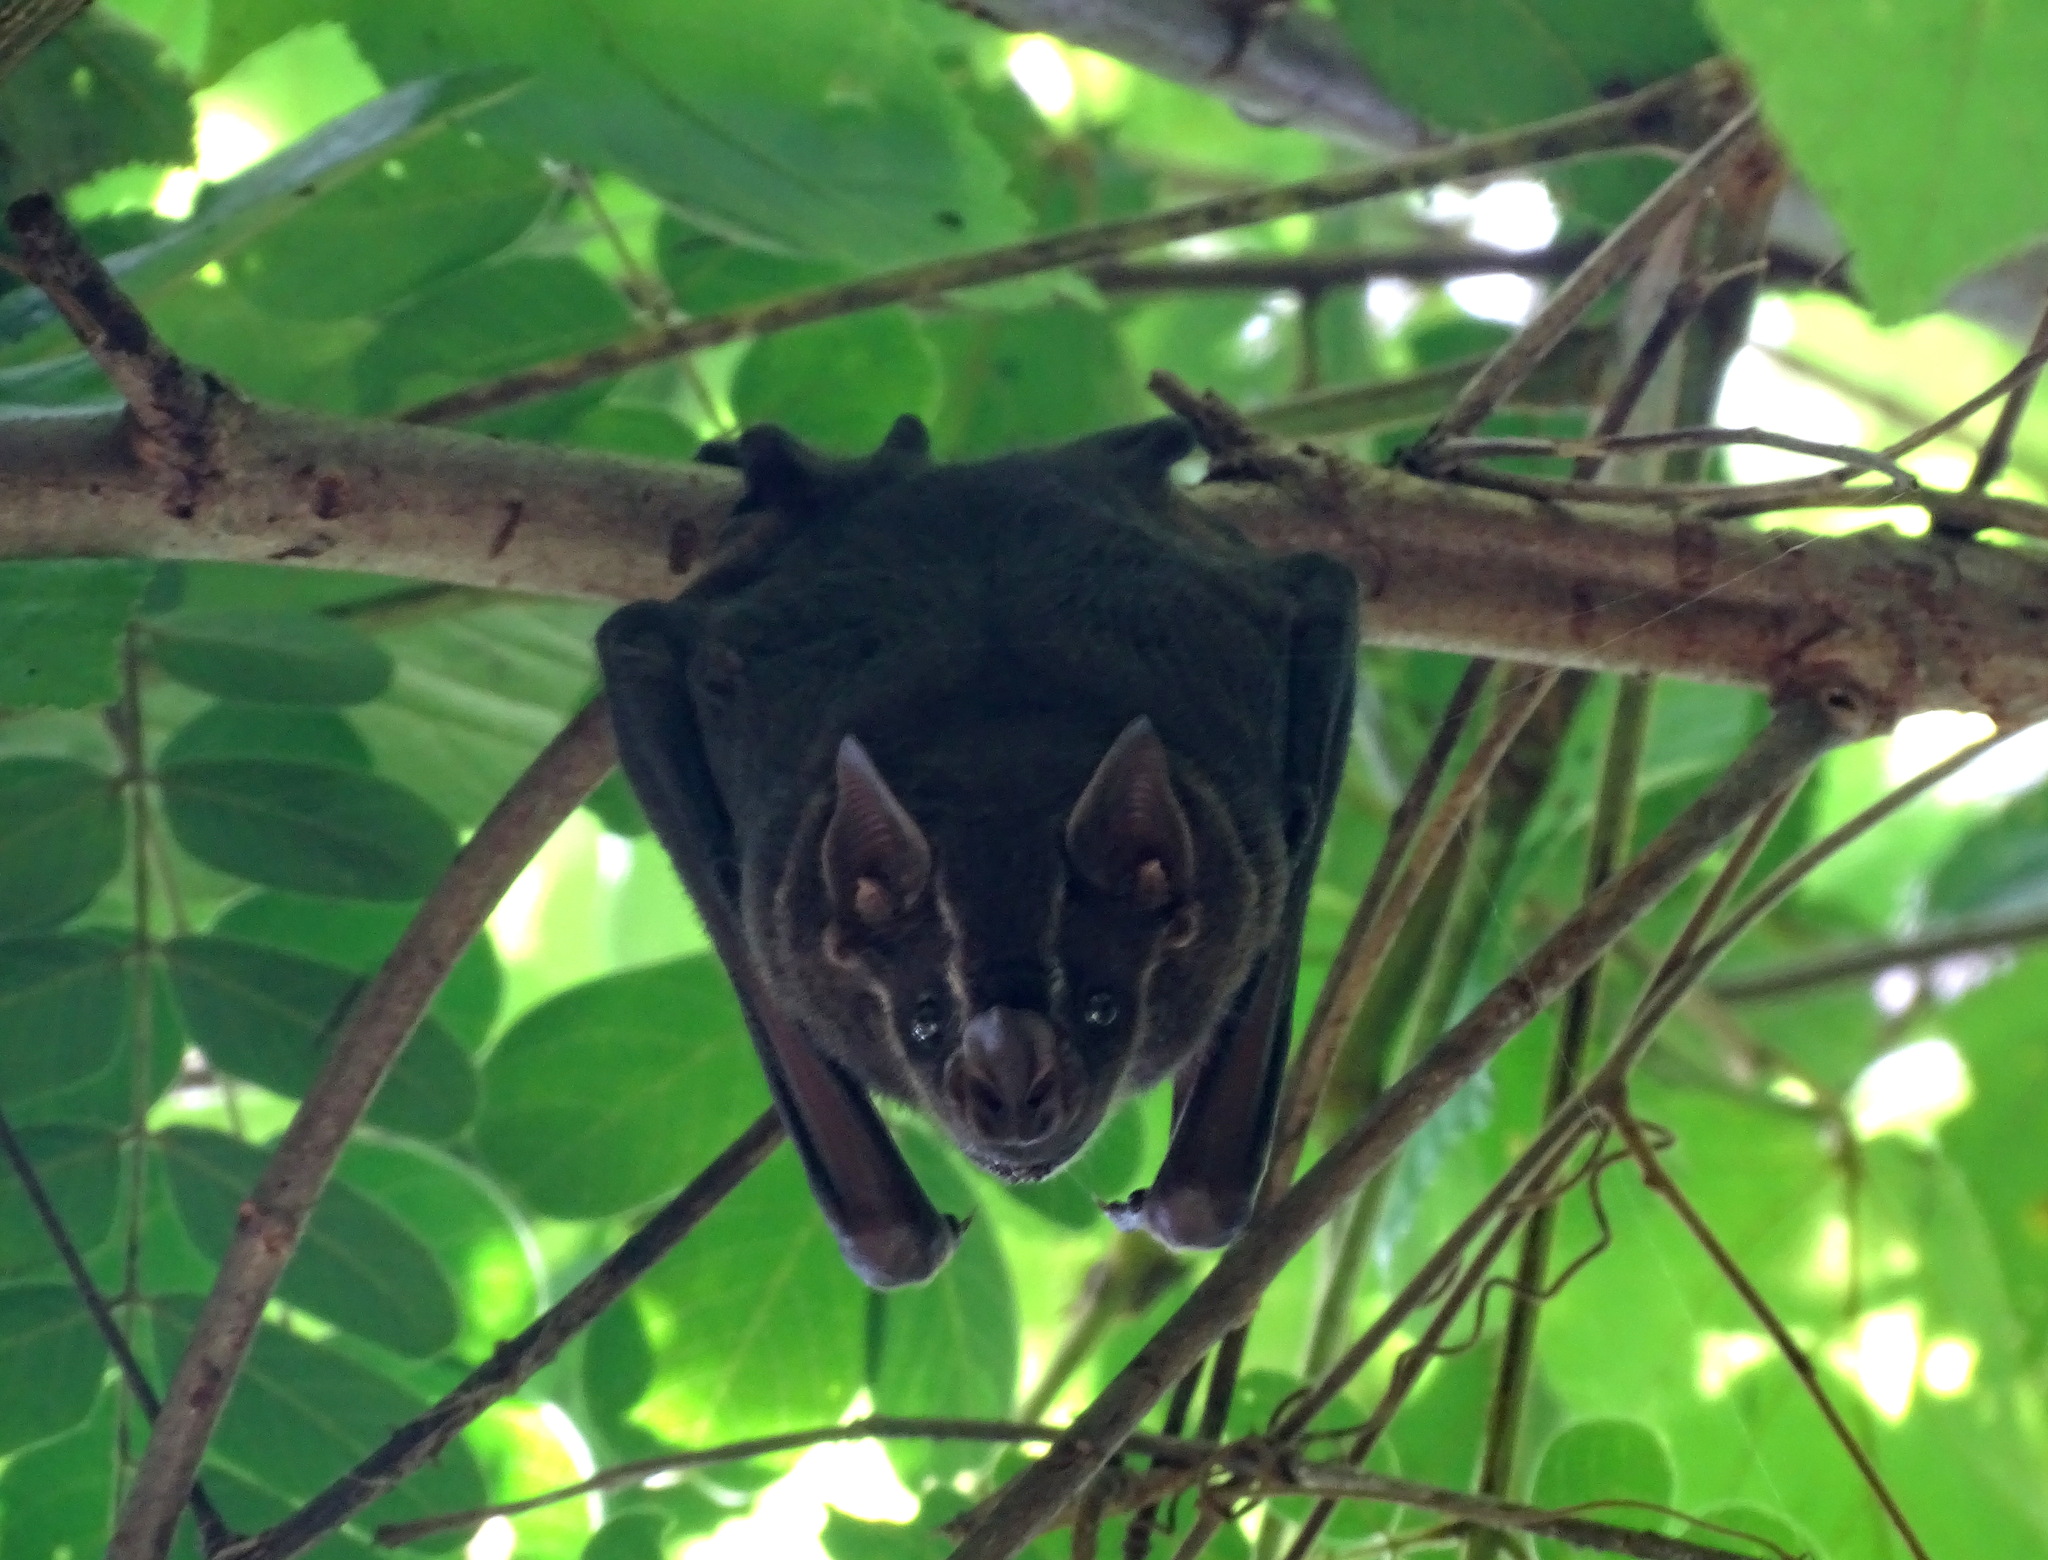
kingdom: Animalia
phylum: Chordata
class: Mammalia
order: Chiroptera
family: Phyllostomidae
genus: Artibeus
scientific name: Artibeus lituratus
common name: Great fruit-eating bat
